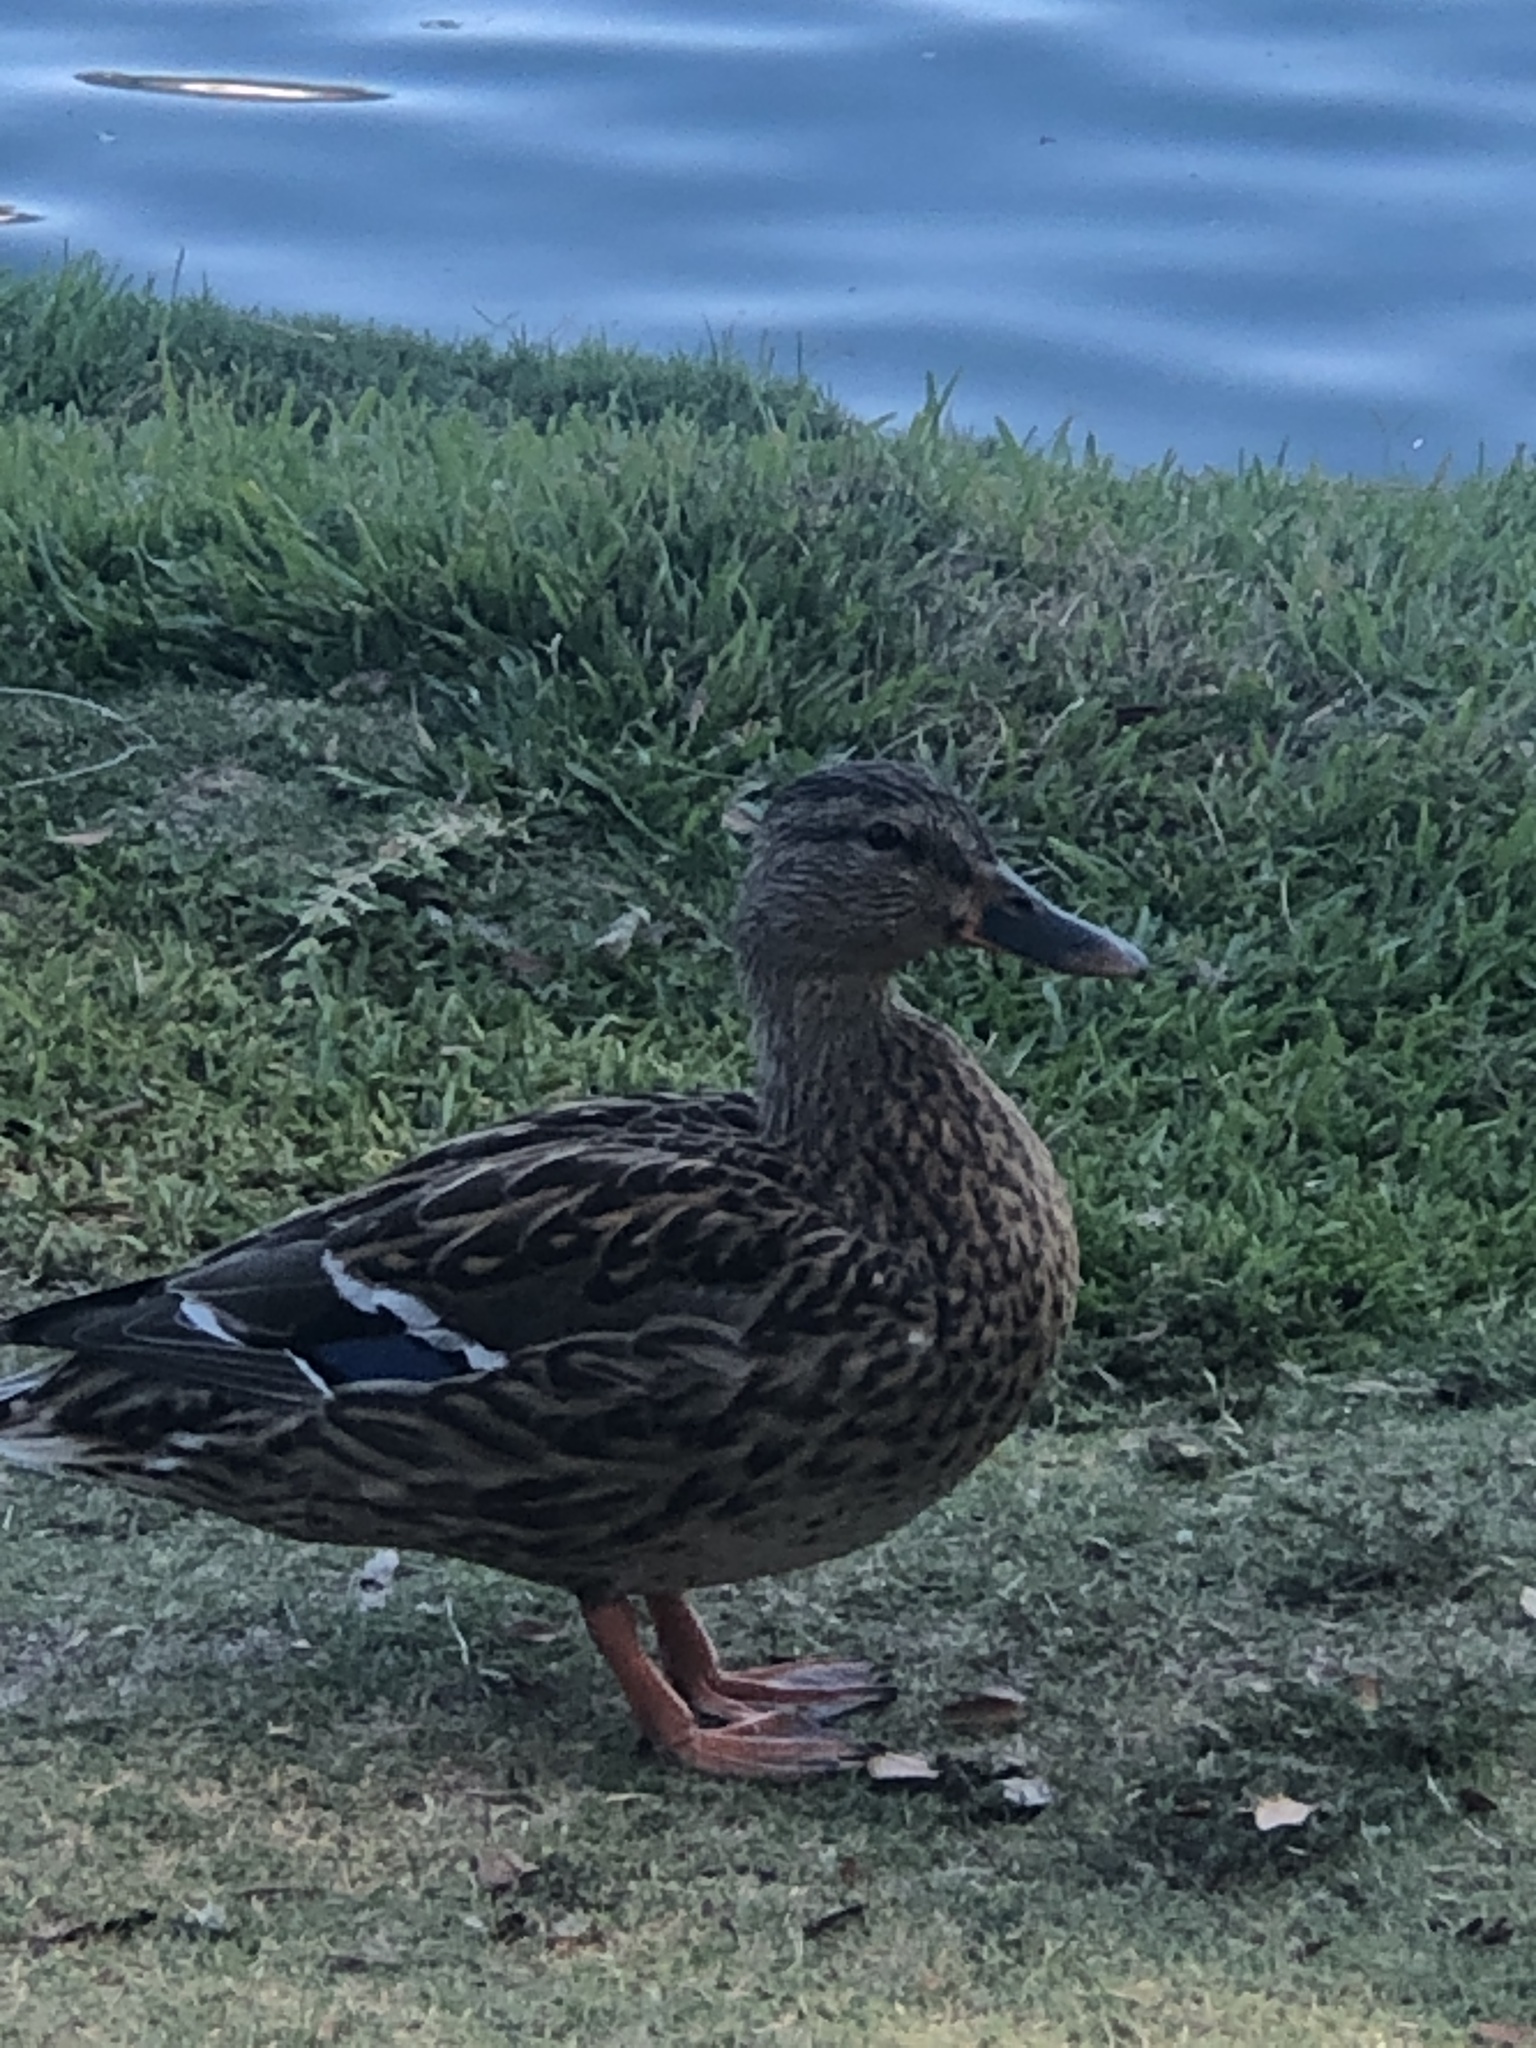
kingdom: Animalia
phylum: Chordata
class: Aves
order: Anseriformes
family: Anatidae
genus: Anas
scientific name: Anas platyrhynchos
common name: Mallard
